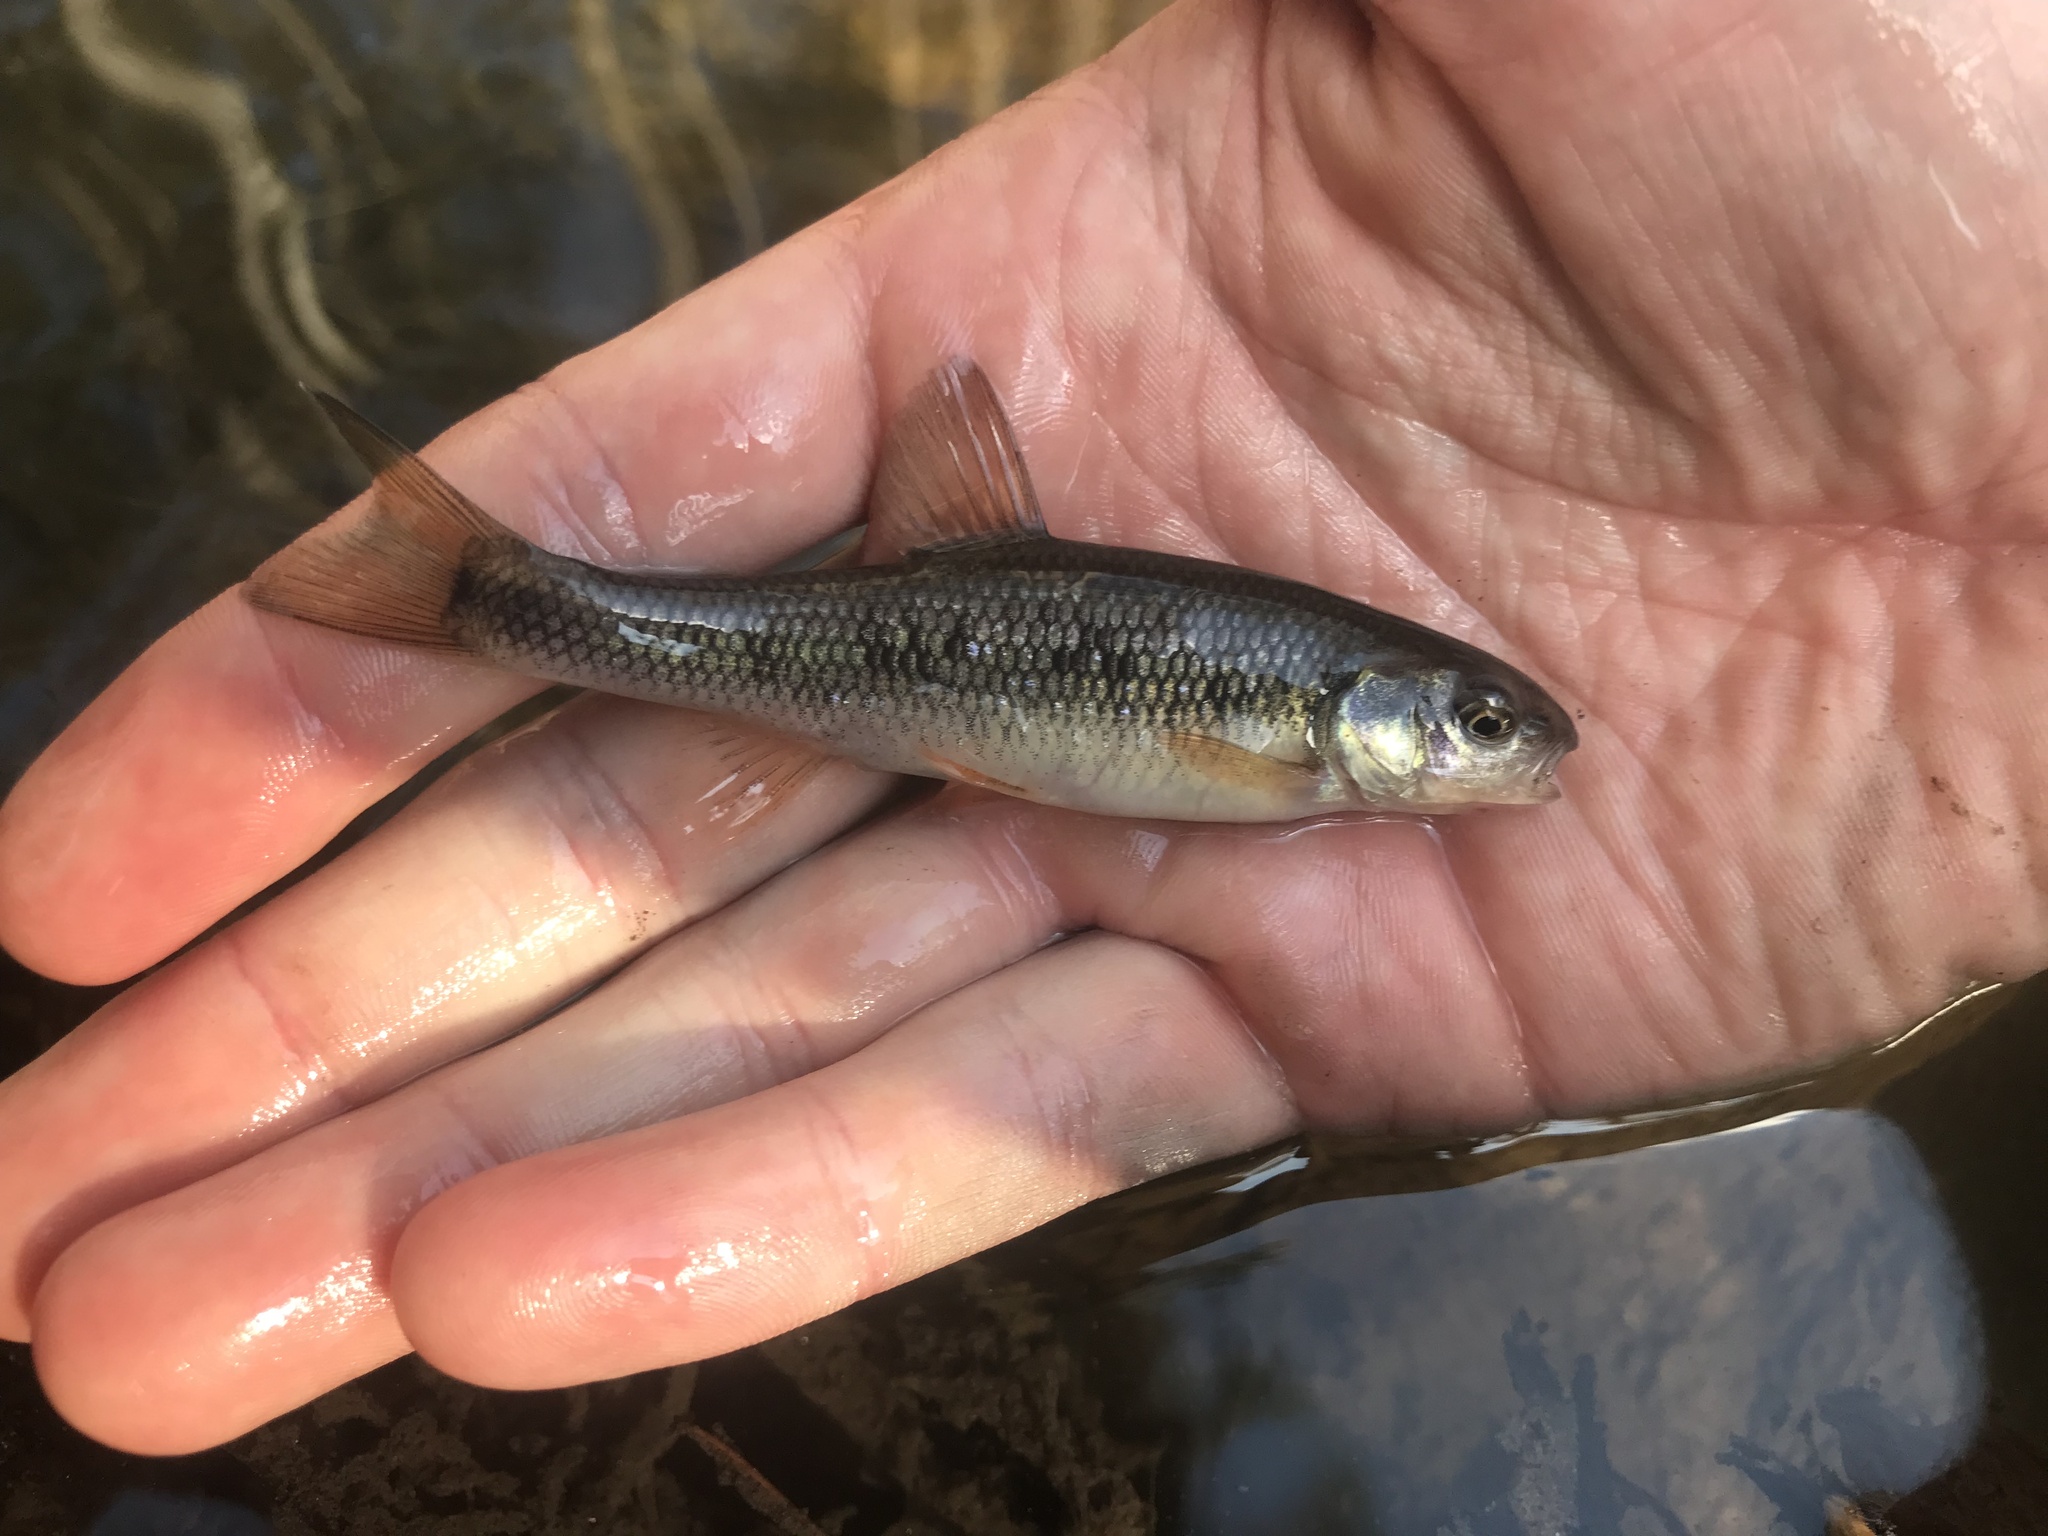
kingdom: Animalia
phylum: Chordata
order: Cypriniformes
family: Cyprinidae
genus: Semotilus
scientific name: Semotilus lumbee
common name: Sandhills chub
